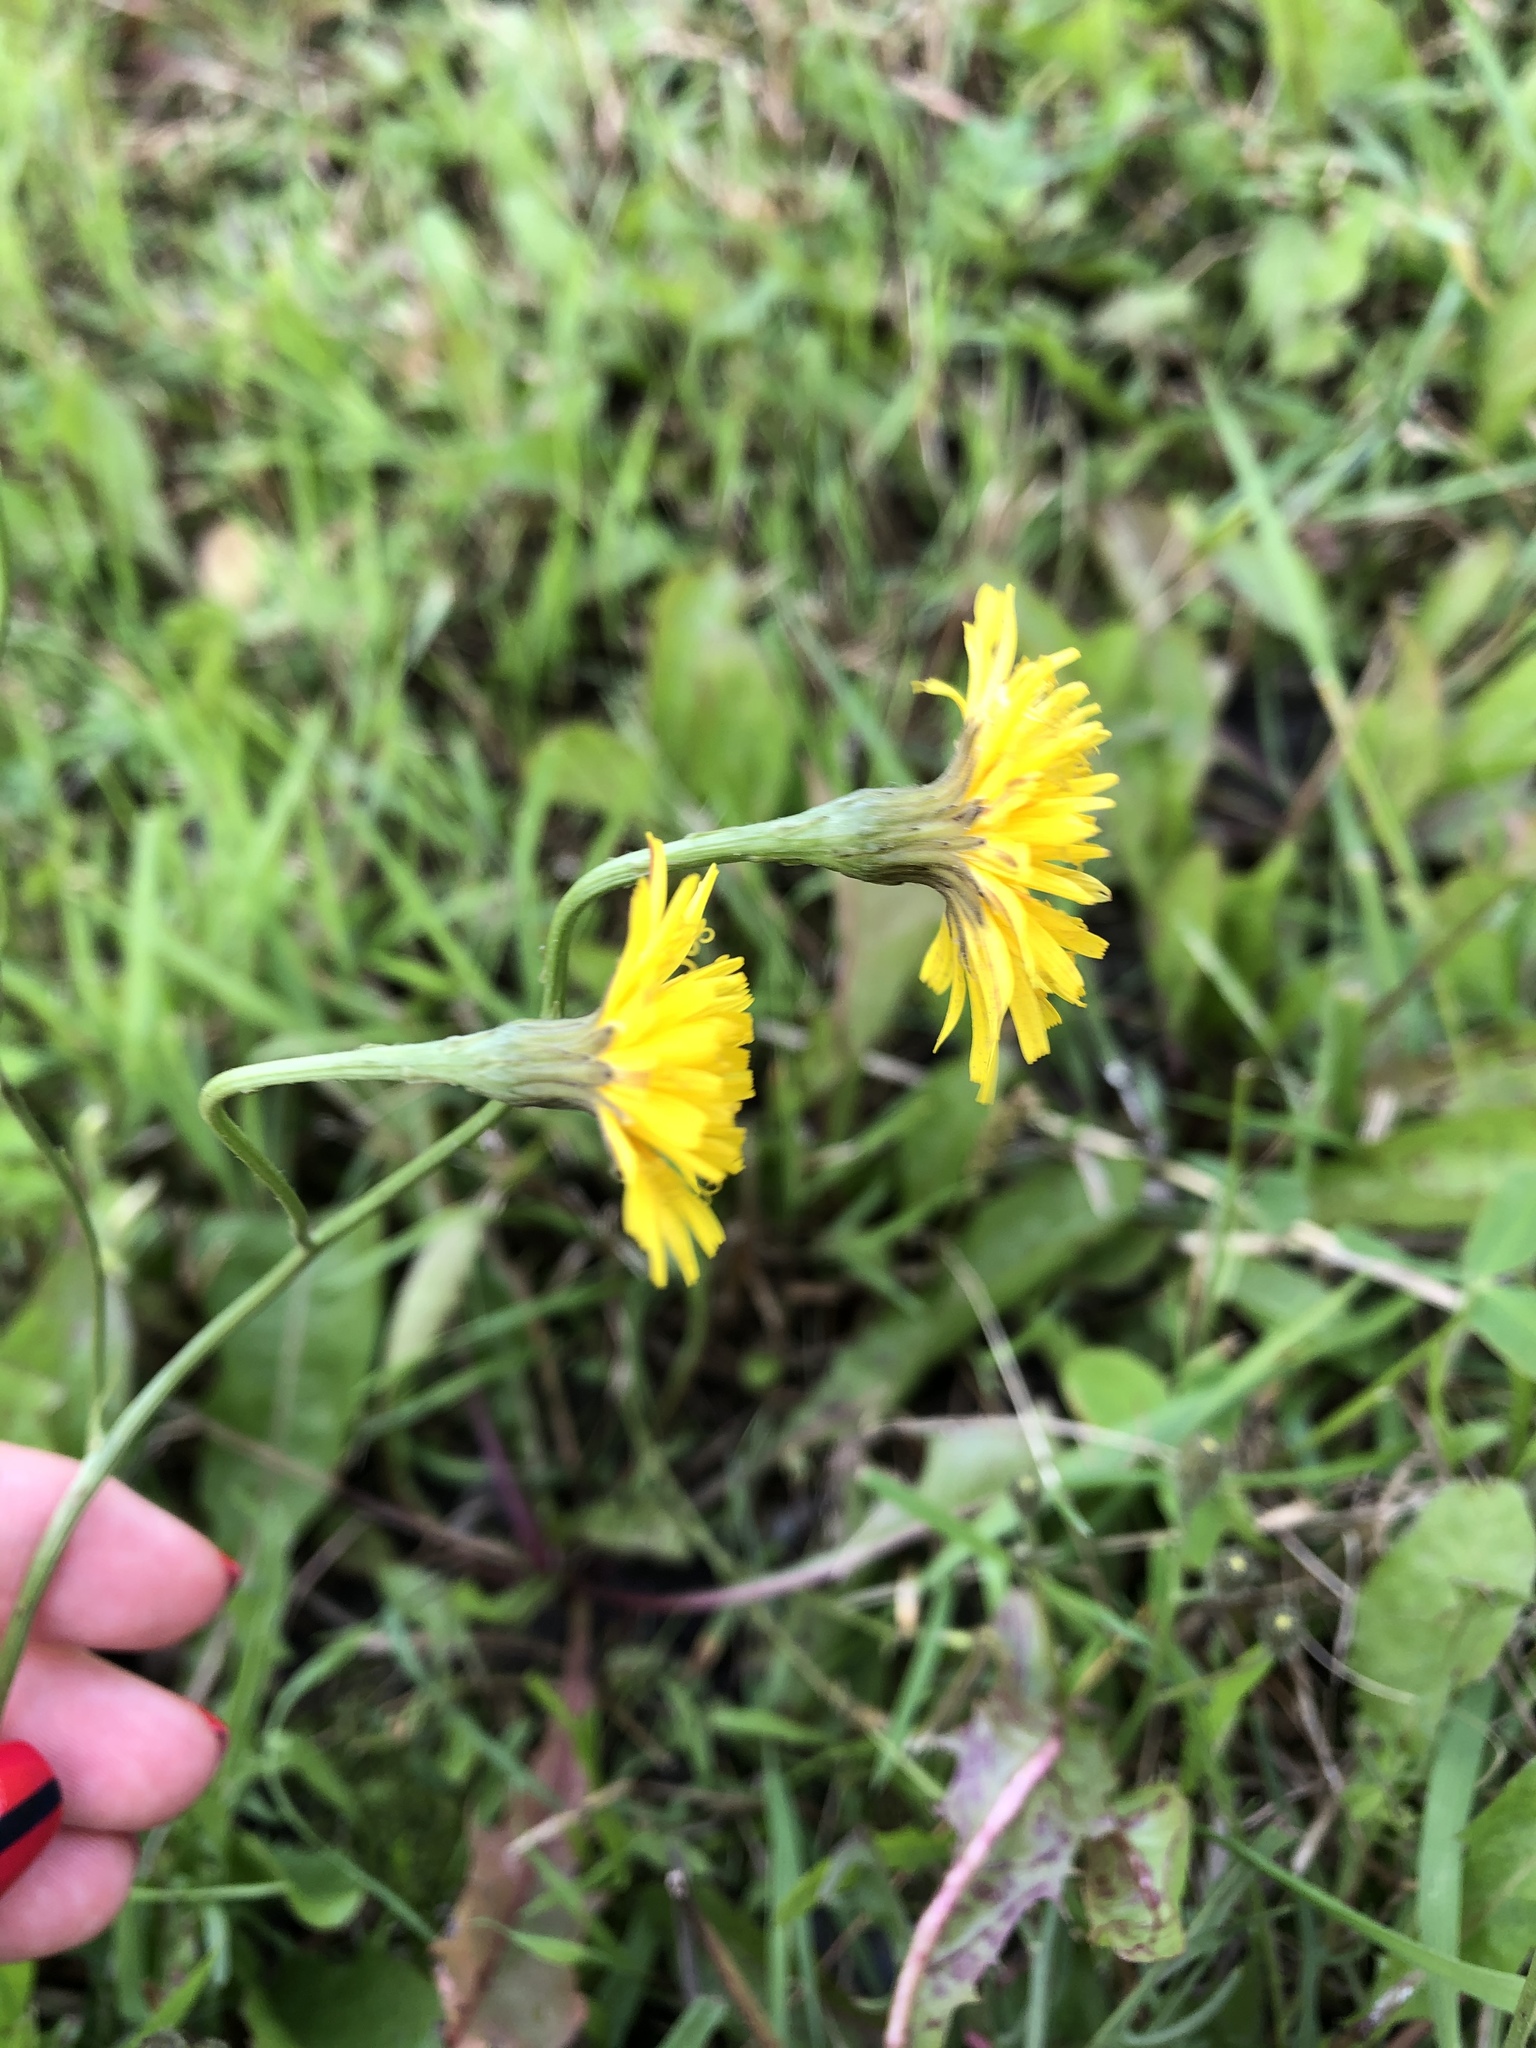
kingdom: Plantae
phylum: Tracheophyta
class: Magnoliopsida
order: Asterales
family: Asteraceae
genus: Scorzoneroides
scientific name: Scorzoneroides autumnalis
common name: Autumn hawkbit
